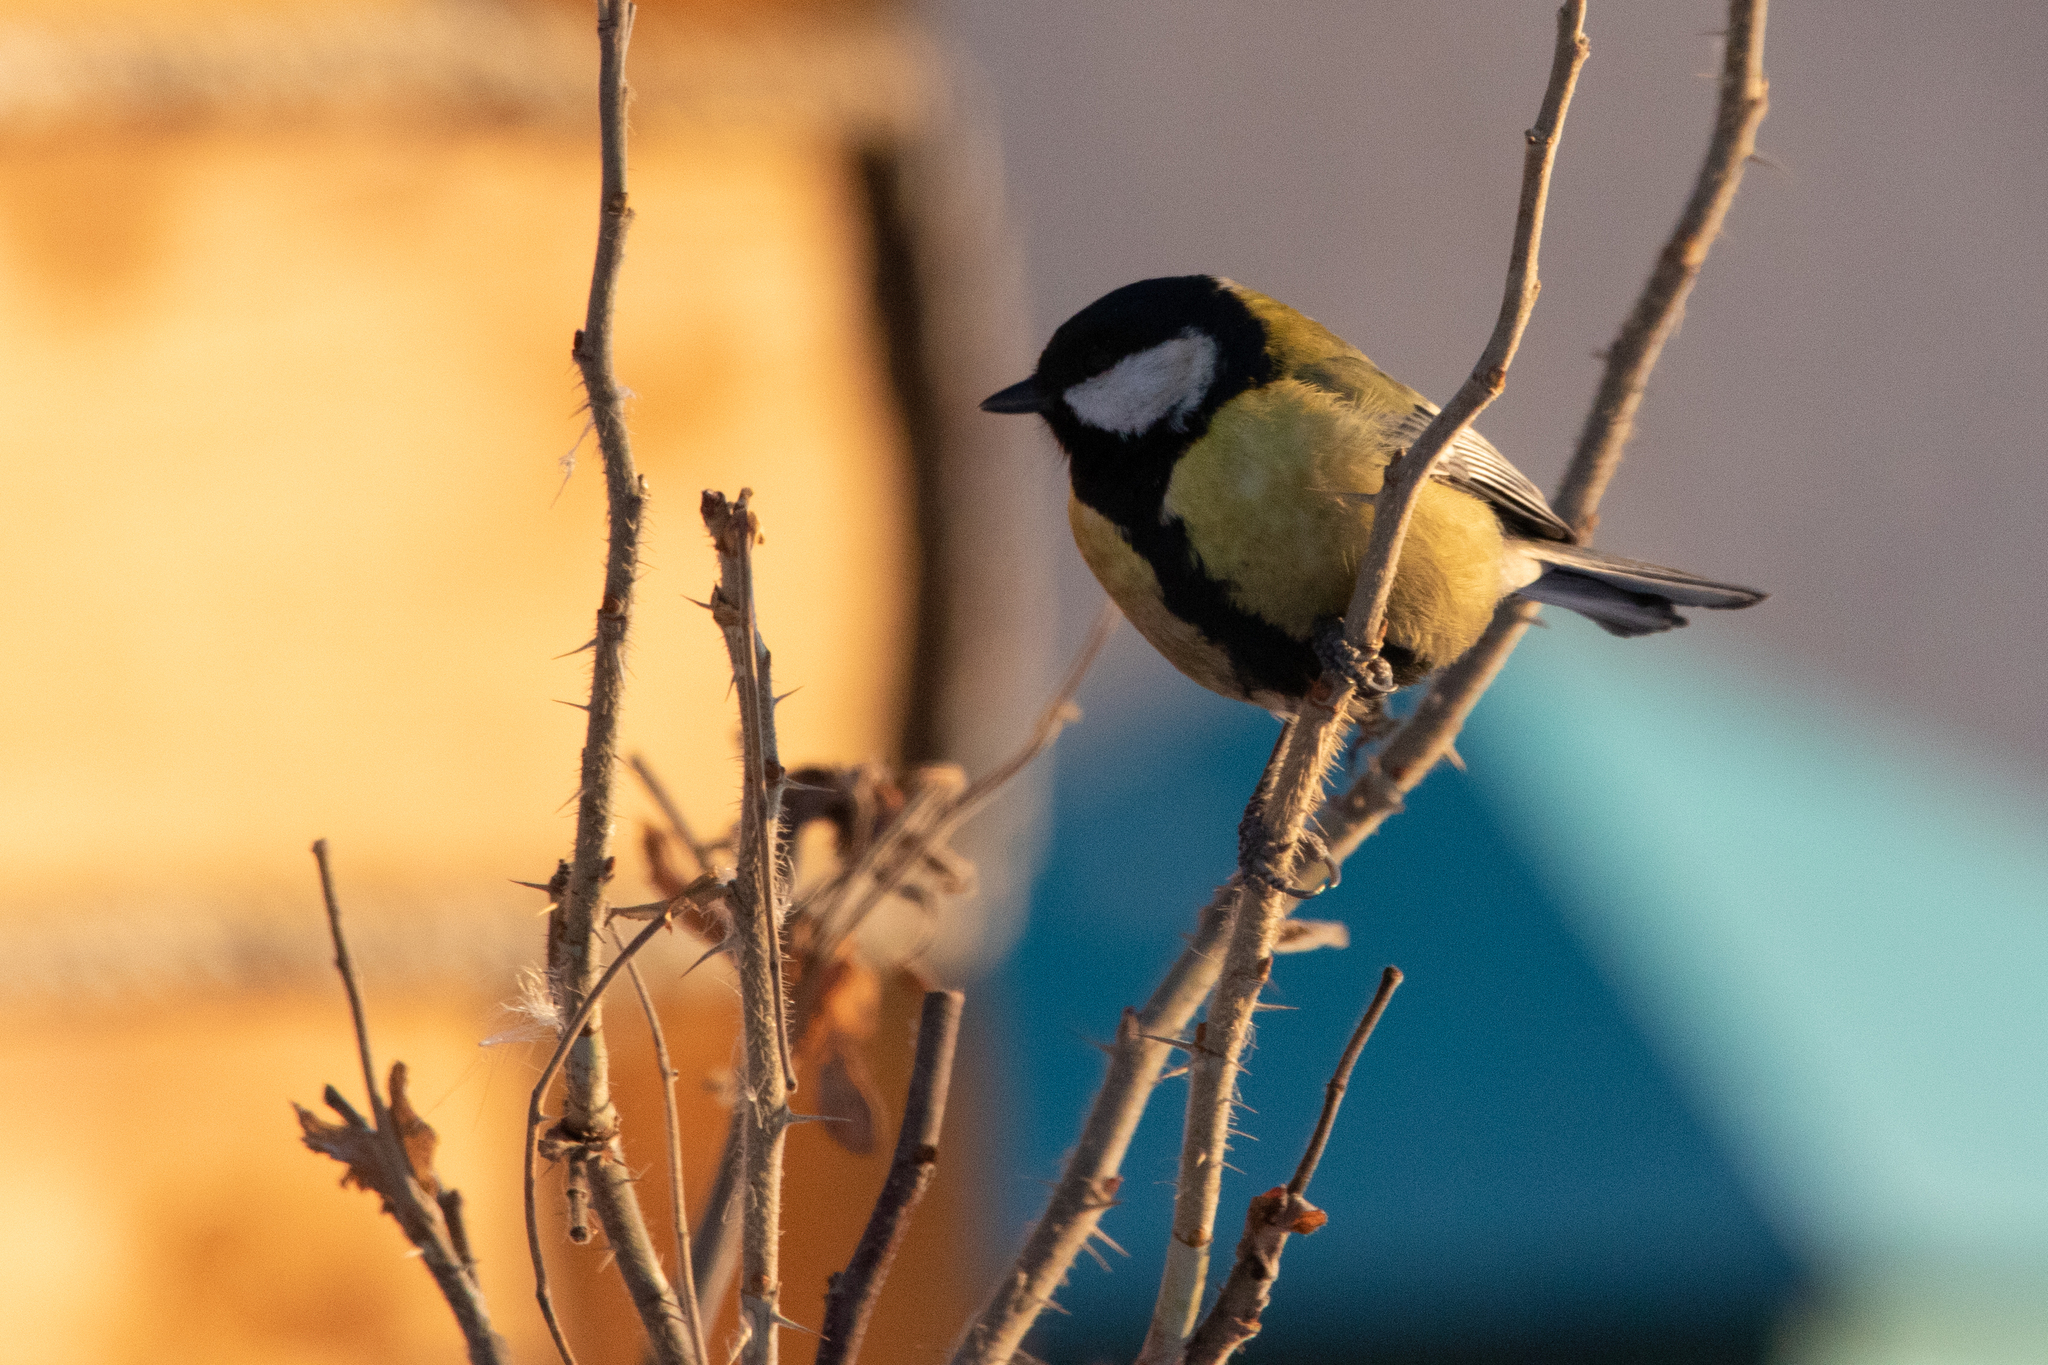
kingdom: Animalia
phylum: Chordata
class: Aves
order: Passeriformes
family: Paridae
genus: Parus
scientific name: Parus major
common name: Great tit
